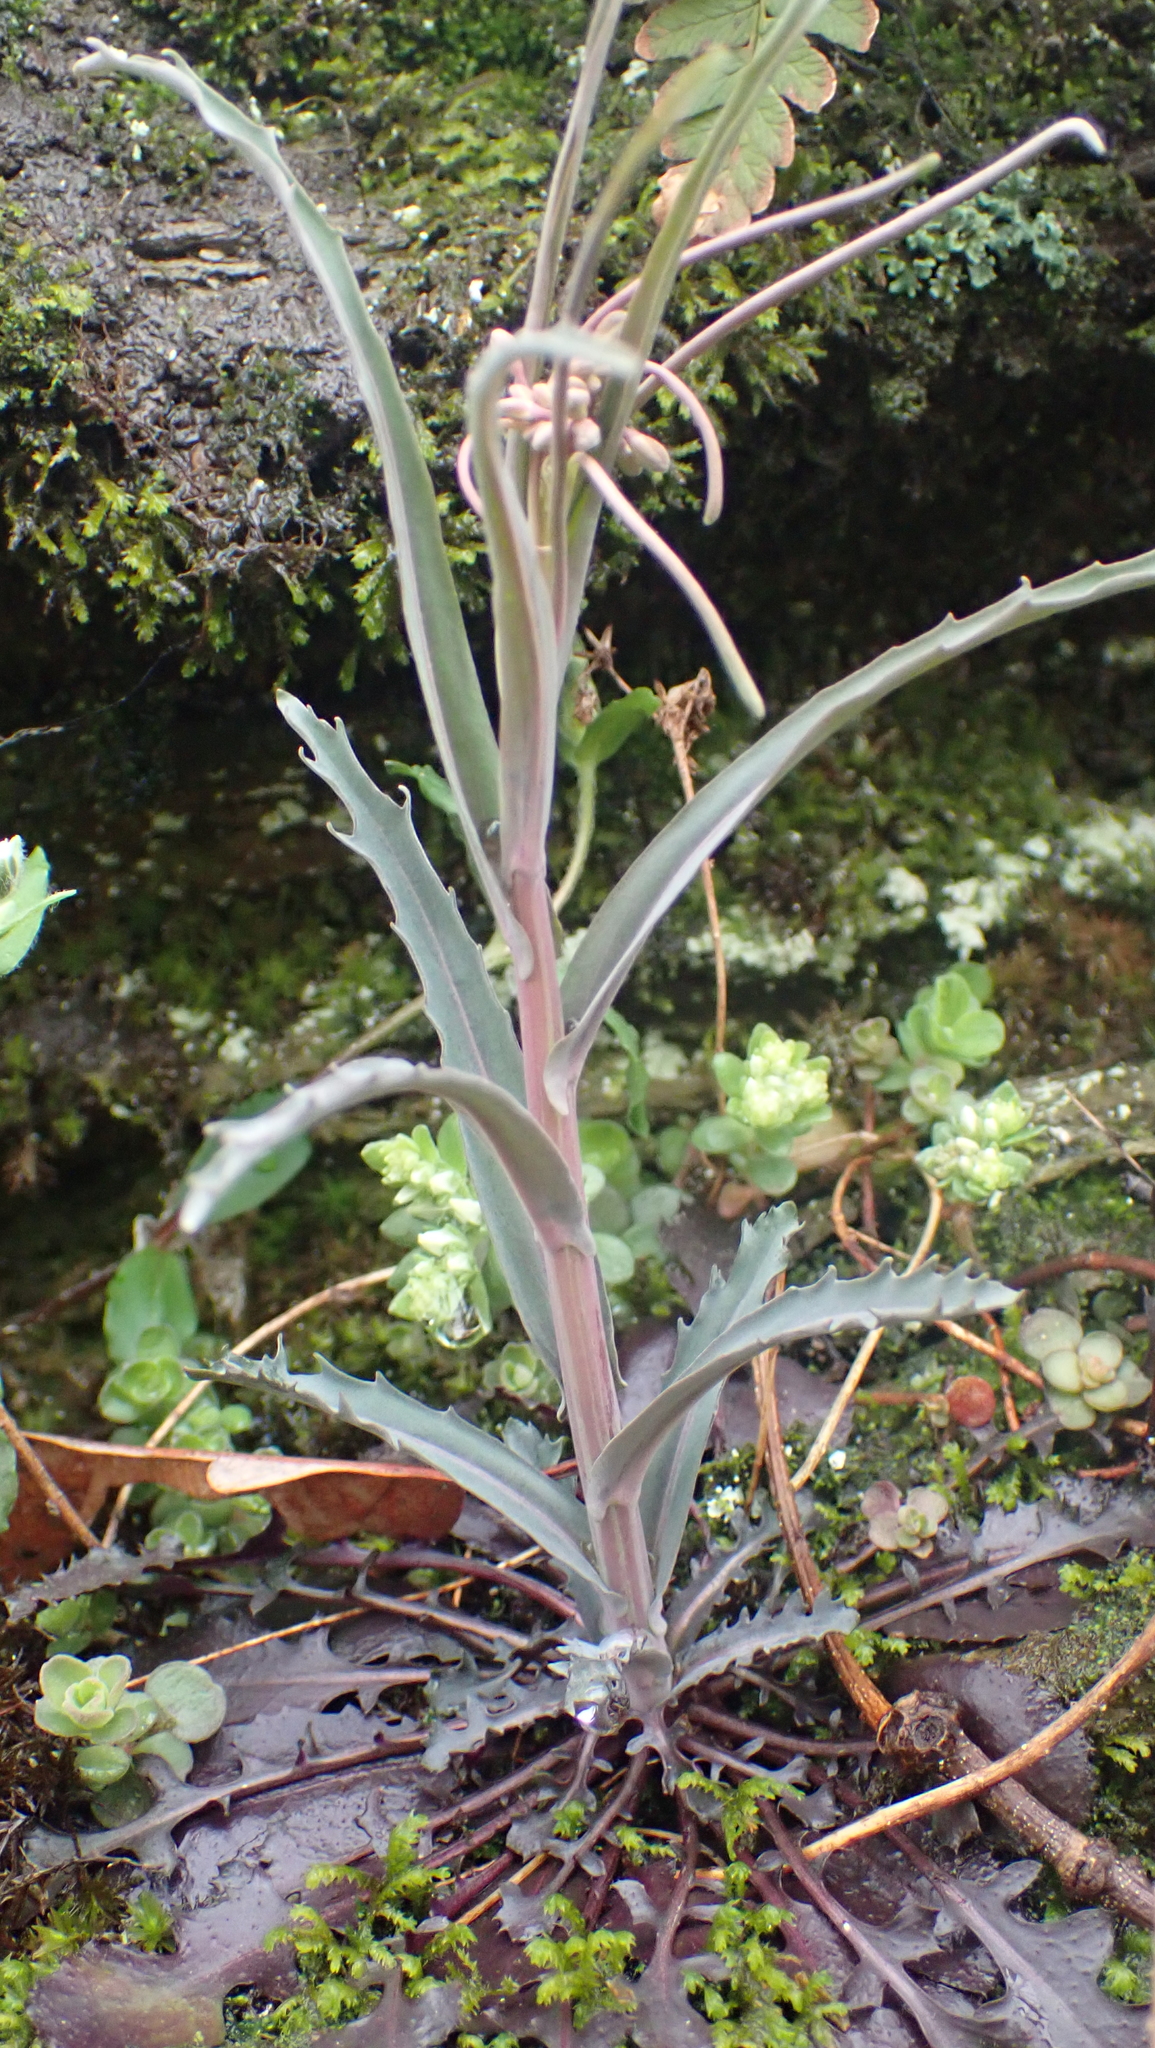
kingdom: Plantae
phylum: Tracheophyta
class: Magnoliopsida
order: Brassicales
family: Brassicaceae
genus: Borodinia
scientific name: Borodinia laevigata
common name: Smooth rockcress
